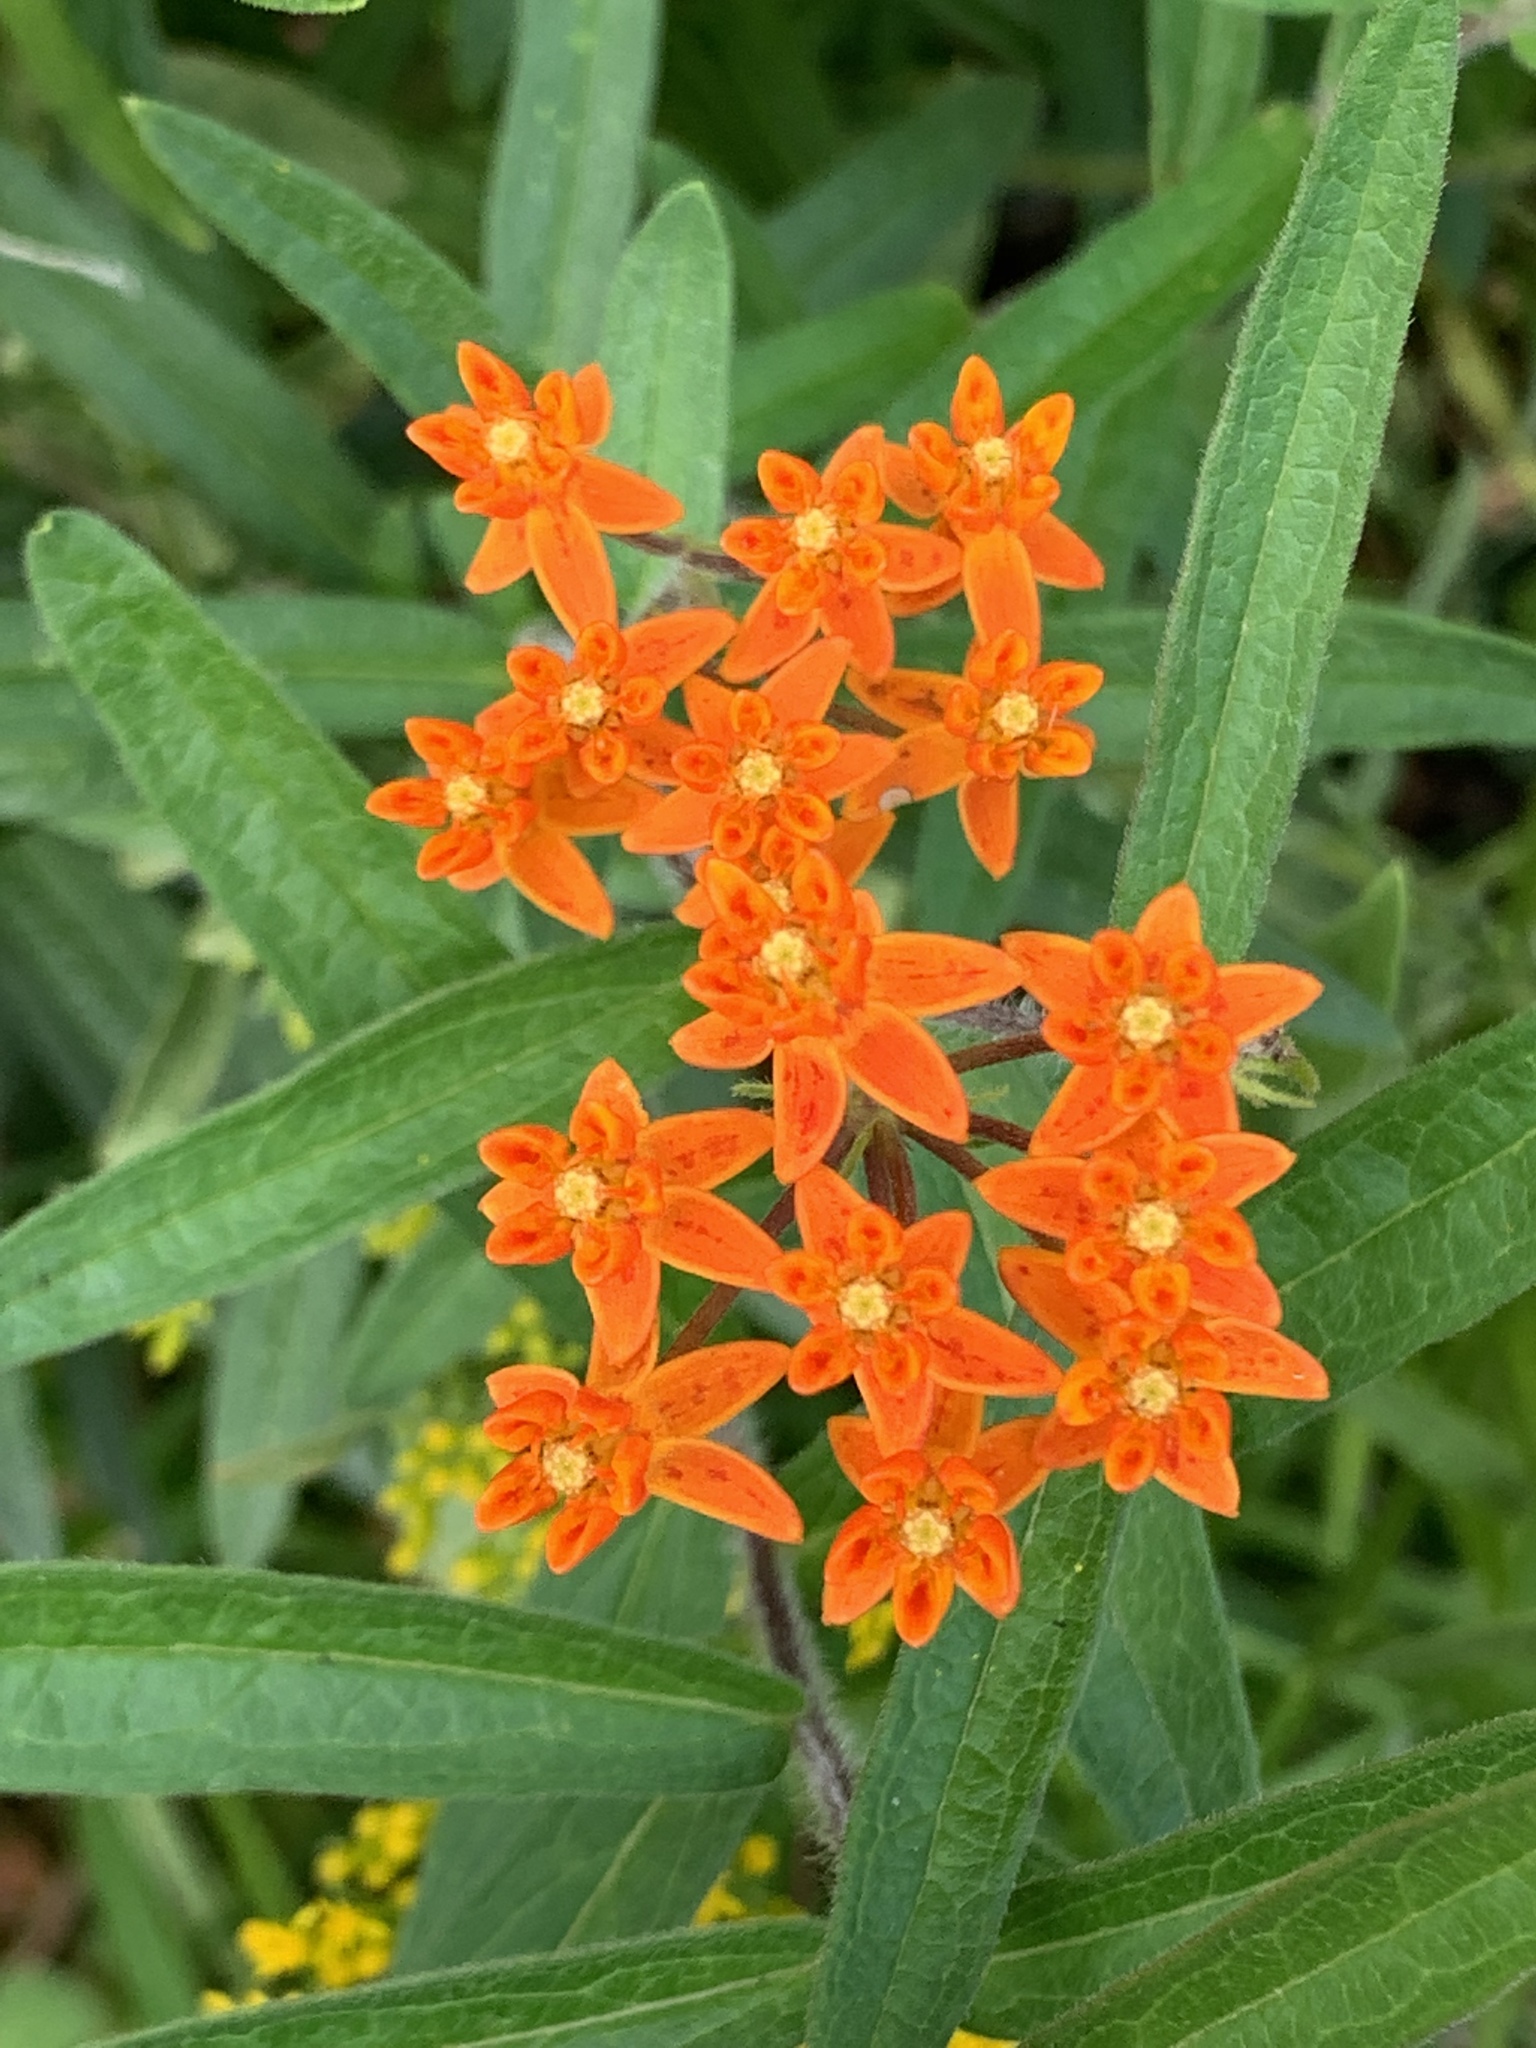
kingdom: Plantae
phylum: Tracheophyta
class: Magnoliopsida
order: Gentianales
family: Apocynaceae
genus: Asclepias
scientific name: Asclepias tuberosa
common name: Butterfly milkweed
